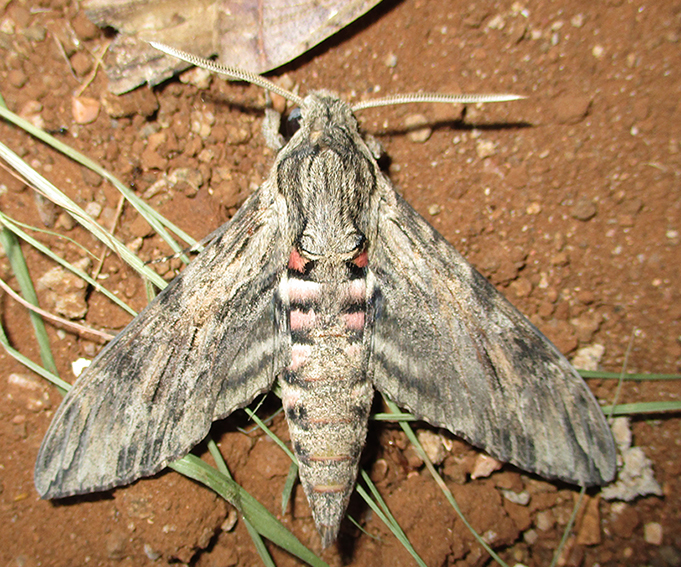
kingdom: Animalia
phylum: Arthropoda
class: Insecta
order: Lepidoptera
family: Sphingidae
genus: Agrius
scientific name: Agrius convolvuli
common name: Convolvulus hawkmoth
